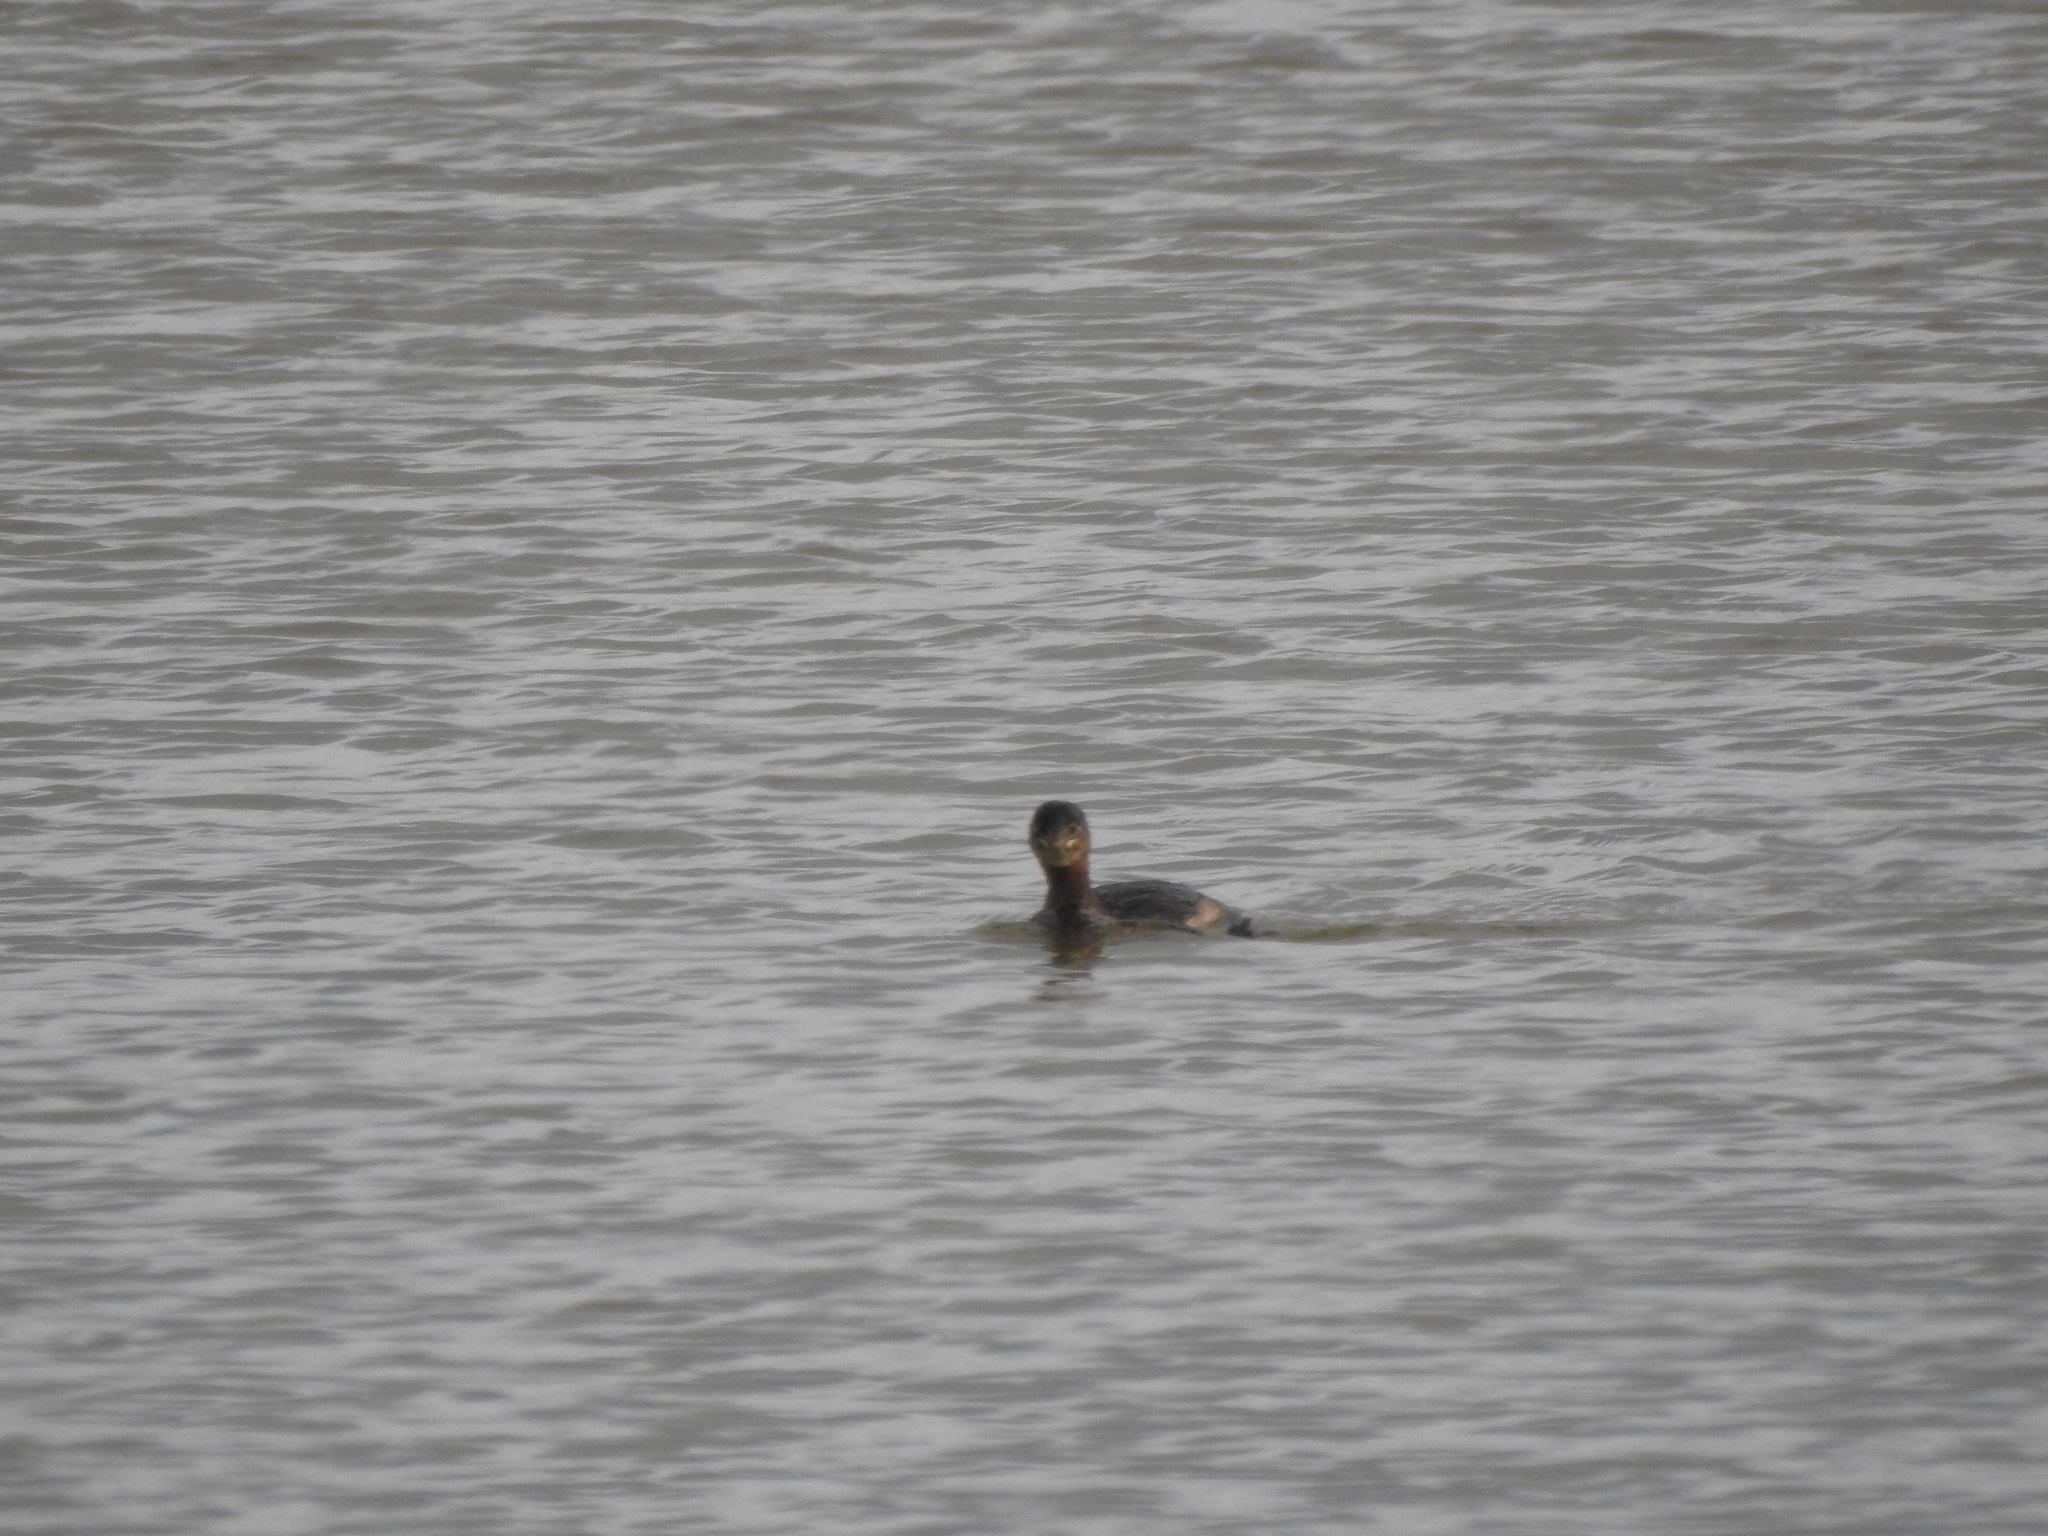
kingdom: Animalia
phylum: Chordata
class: Aves
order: Podicipediformes
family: Podicipedidae
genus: Podilymbus
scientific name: Podilymbus podiceps
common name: Pied-billed grebe
